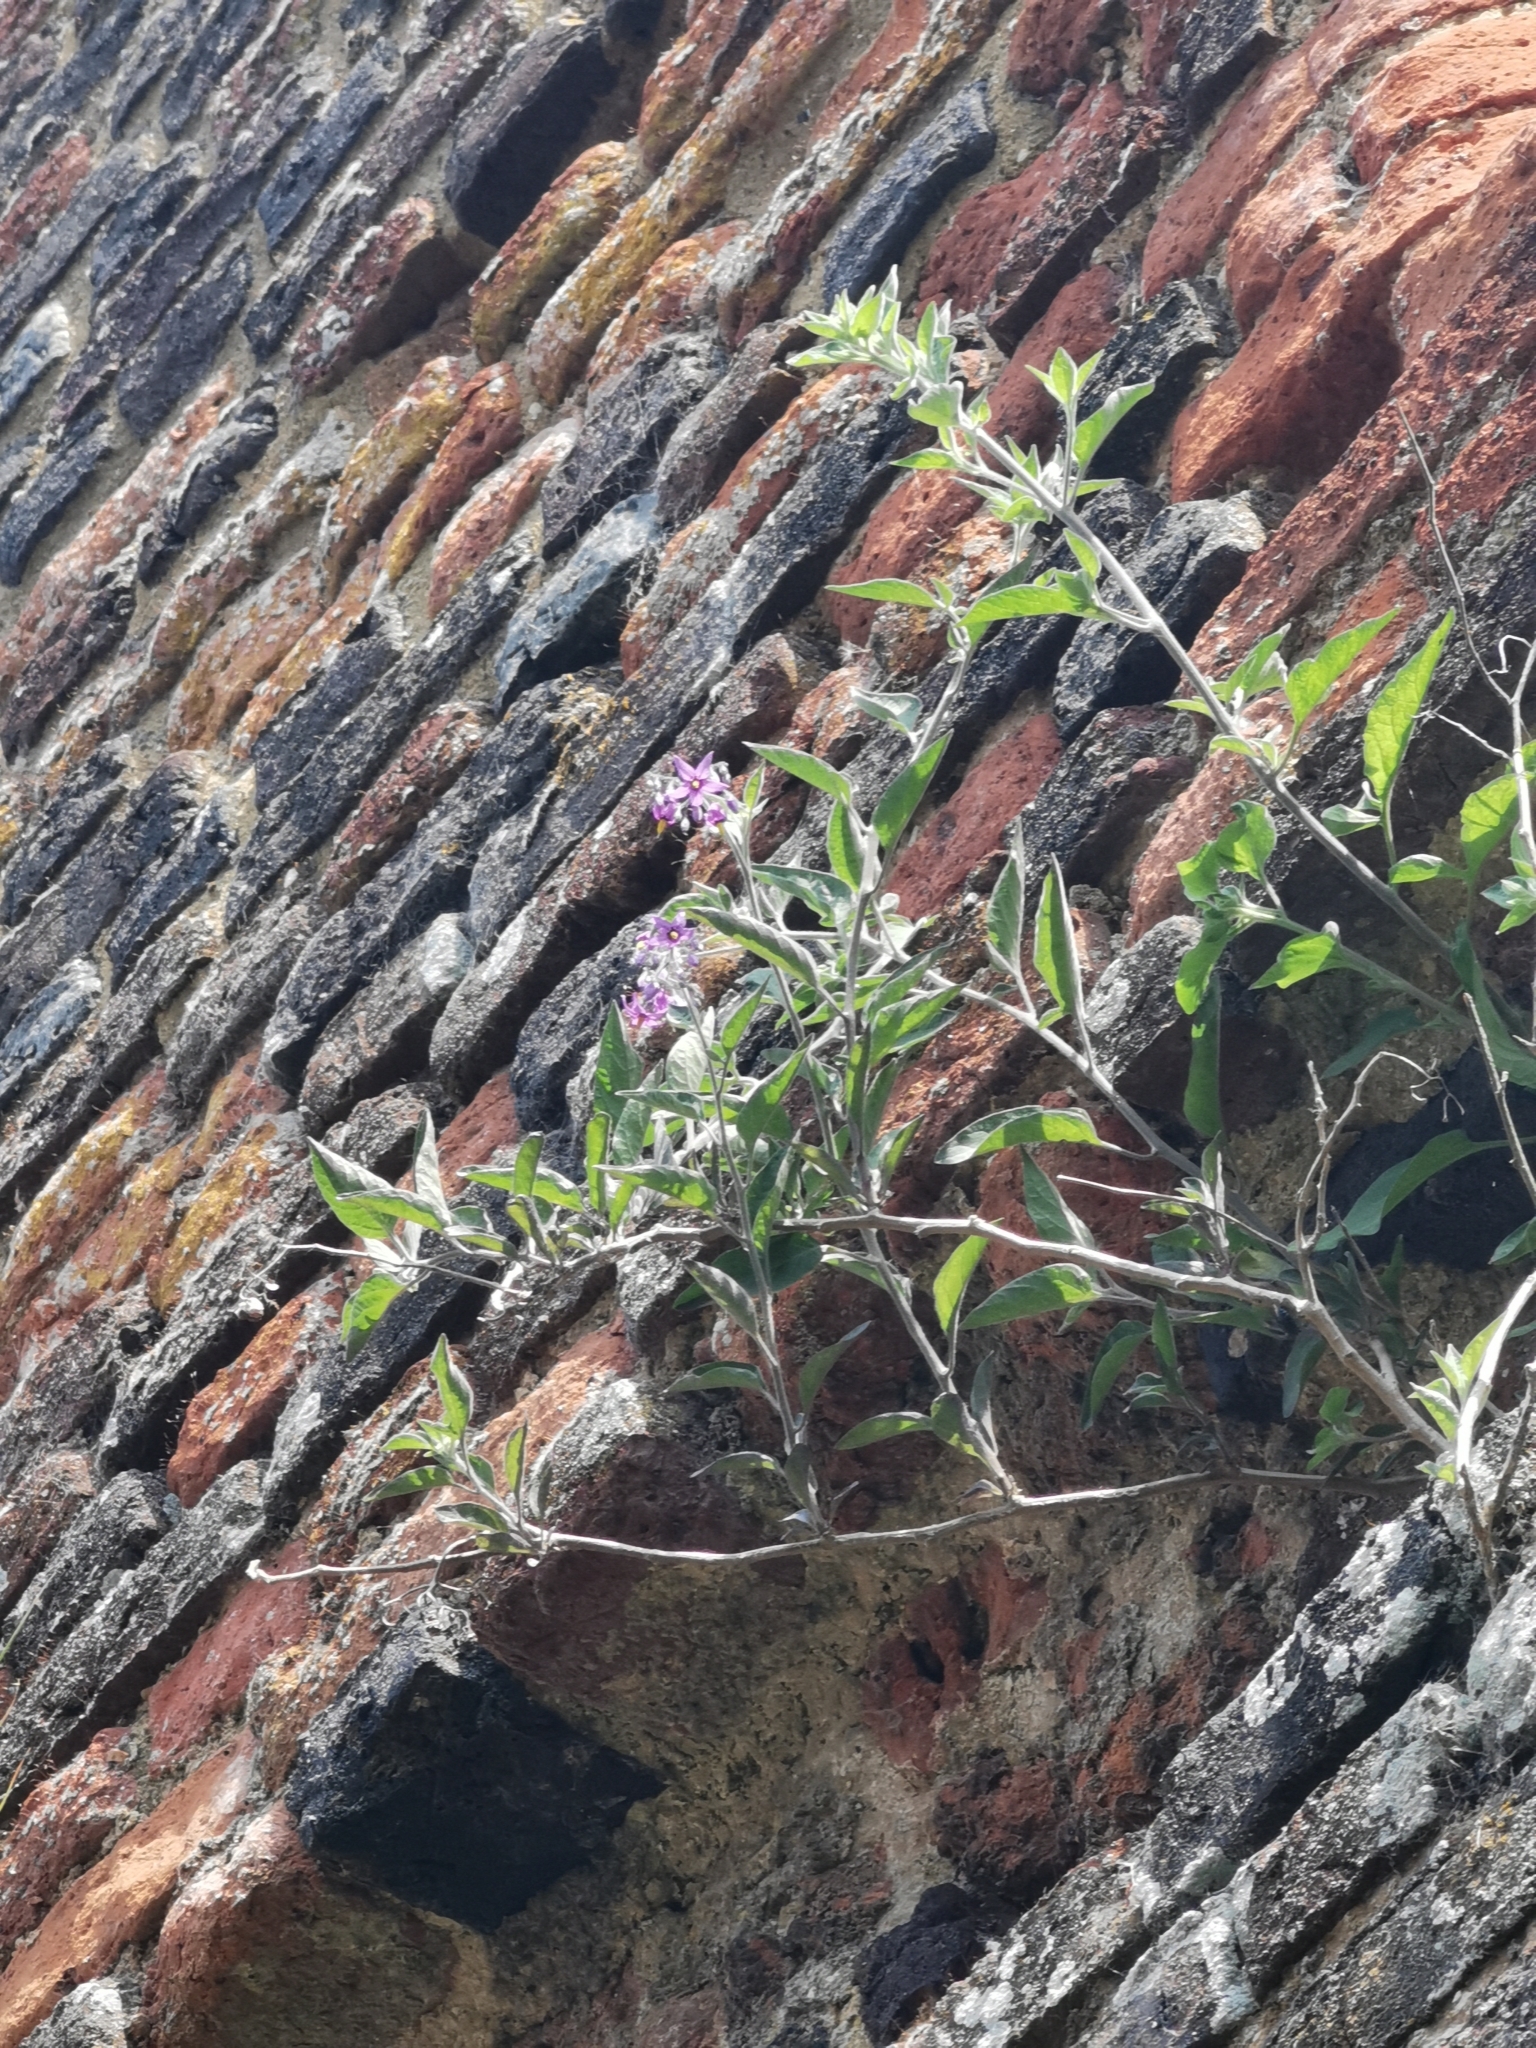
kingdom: Plantae
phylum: Tracheophyta
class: Magnoliopsida
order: Solanales
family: Solanaceae
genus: Solanum
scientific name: Solanum dulcamara
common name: Climbing nightshade
